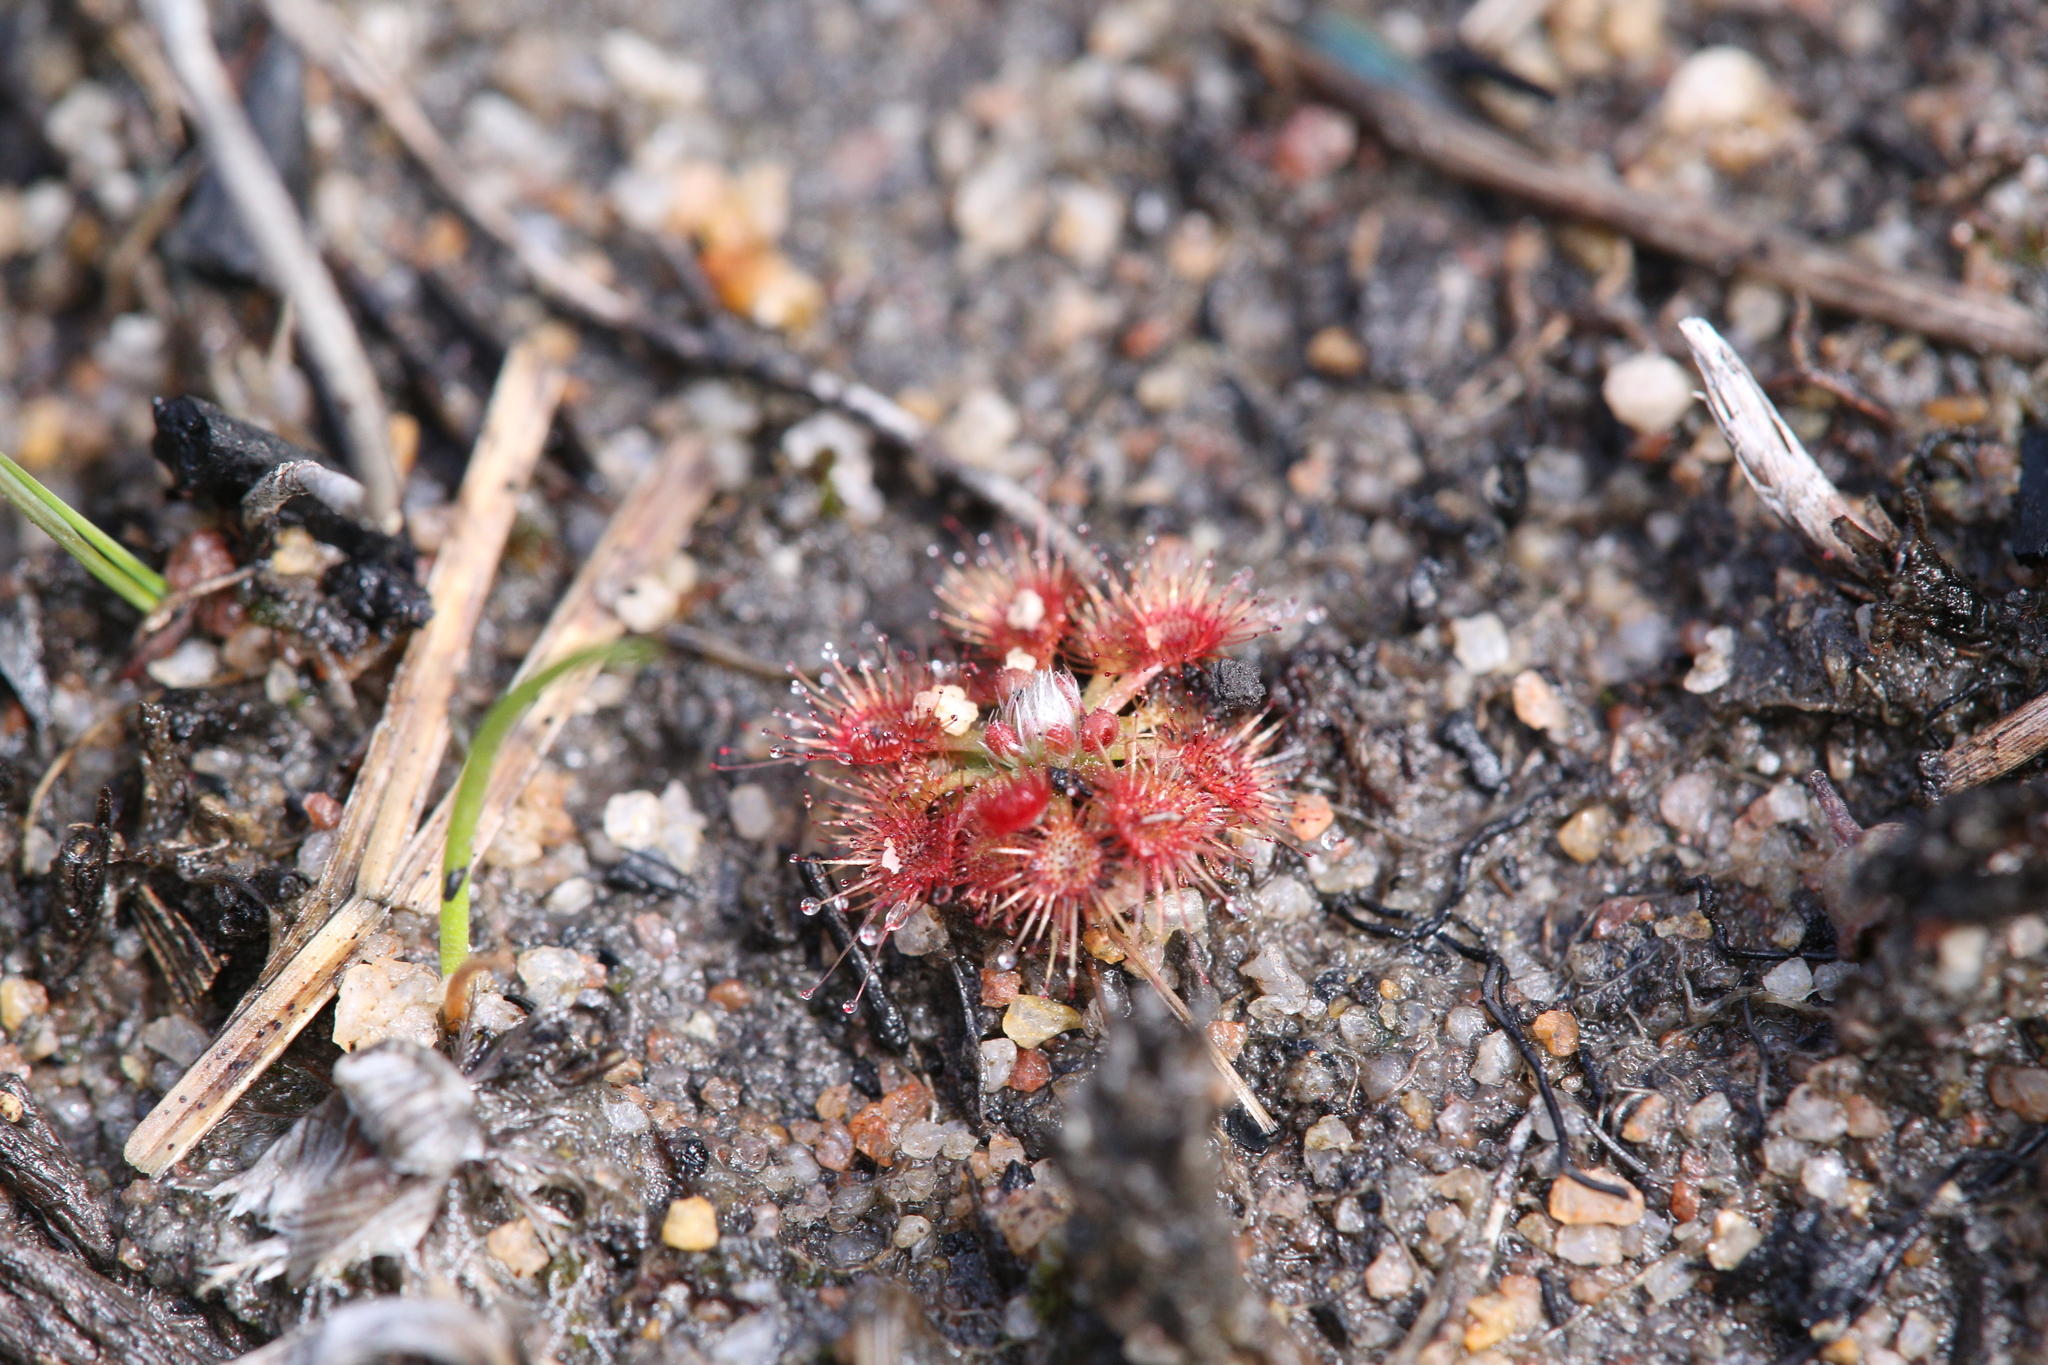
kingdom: Plantae
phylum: Tracheophyta
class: Magnoliopsida
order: Caryophyllales
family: Droseraceae
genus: Drosera
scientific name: Drosera nitidula
